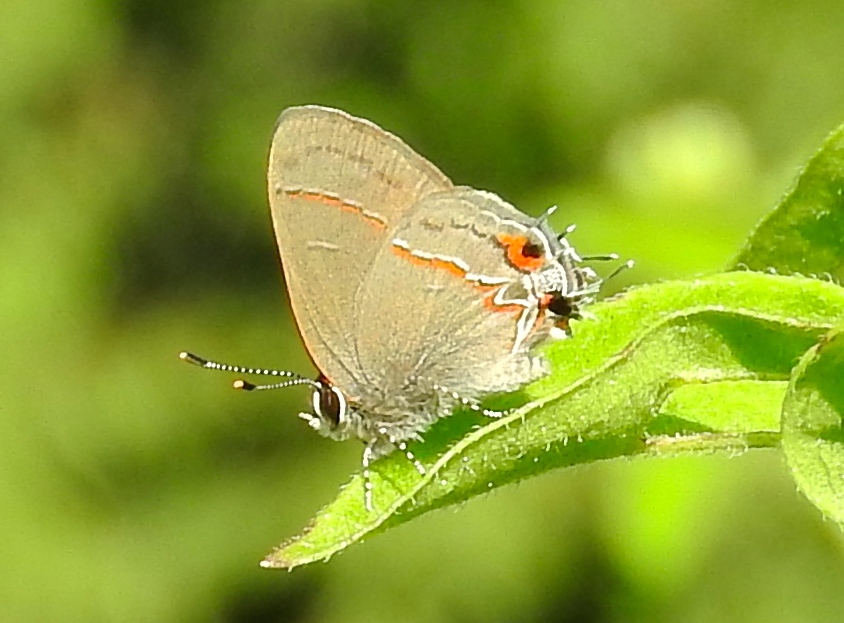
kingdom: Animalia
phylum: Arthropoda
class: Insecta
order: Lepidoptera
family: Lycaenidae
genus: Electrostrymon
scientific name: Electrostrymon endymion
